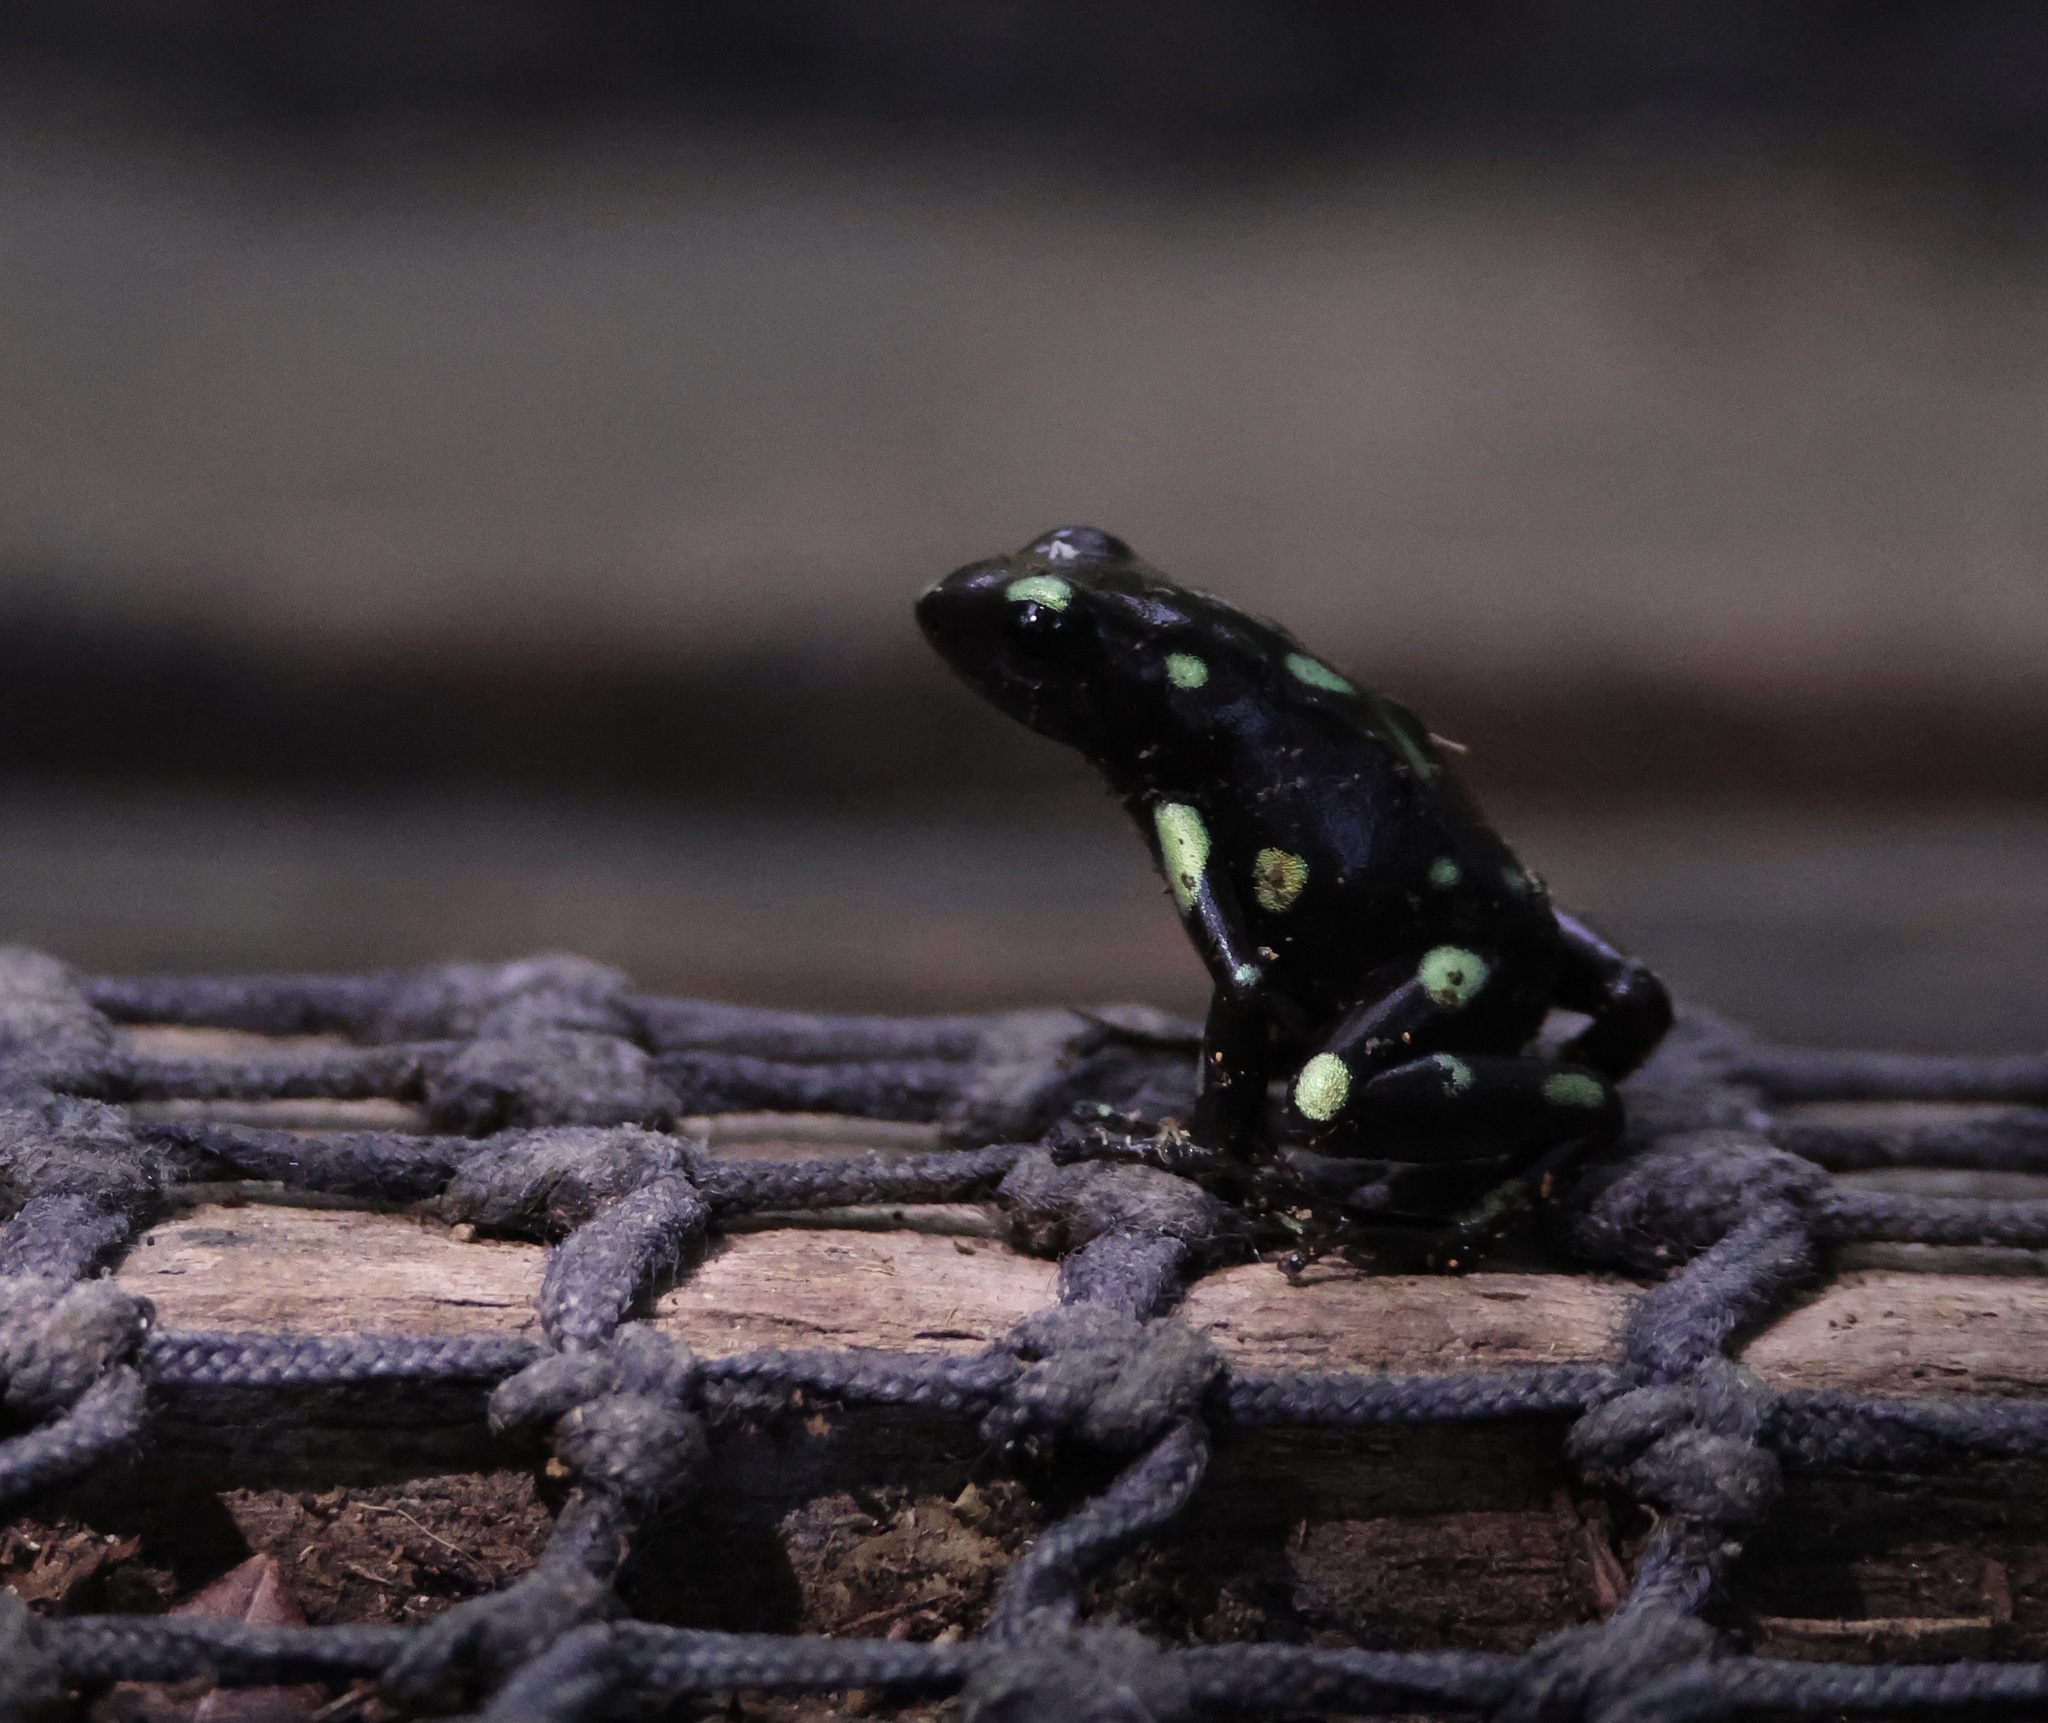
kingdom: Animalia
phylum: Chordata
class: Amphibia
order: Anura
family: Dendrobatidae
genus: Dendrobates
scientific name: Dendrobates auratus
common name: Green and black poison dart frog
